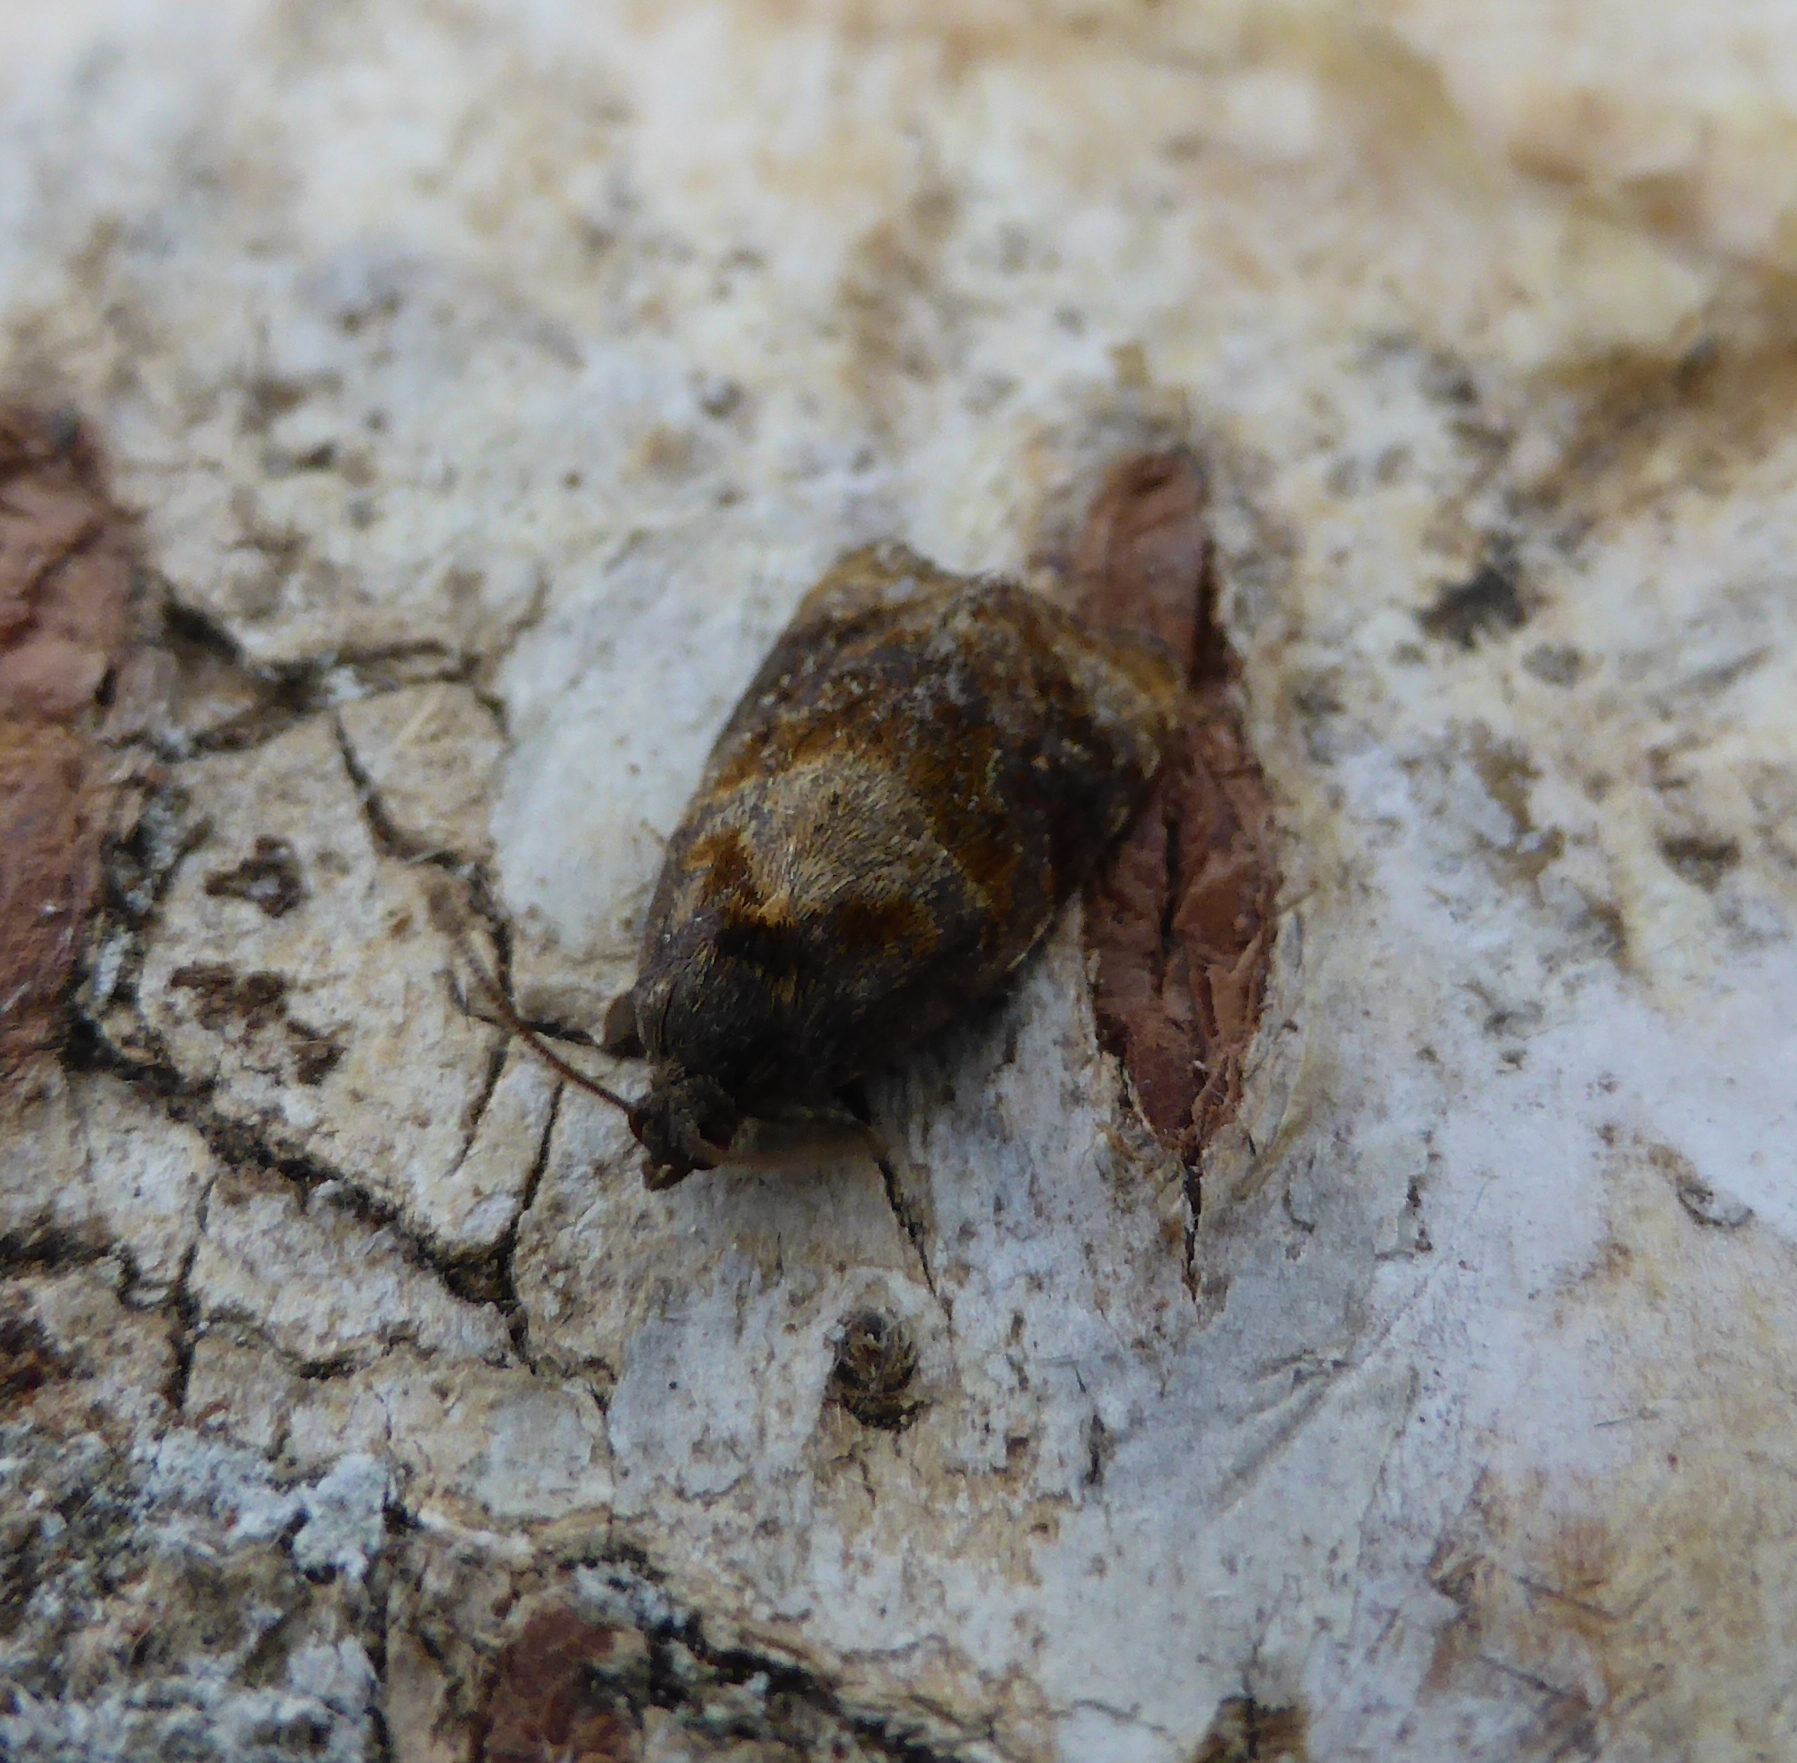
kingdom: Animalia
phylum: Arthropoda
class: Insecta
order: Lepidoptera
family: Tortricidae
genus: Ditula
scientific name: Ditula angustiorana
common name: Red-barred tortrix
